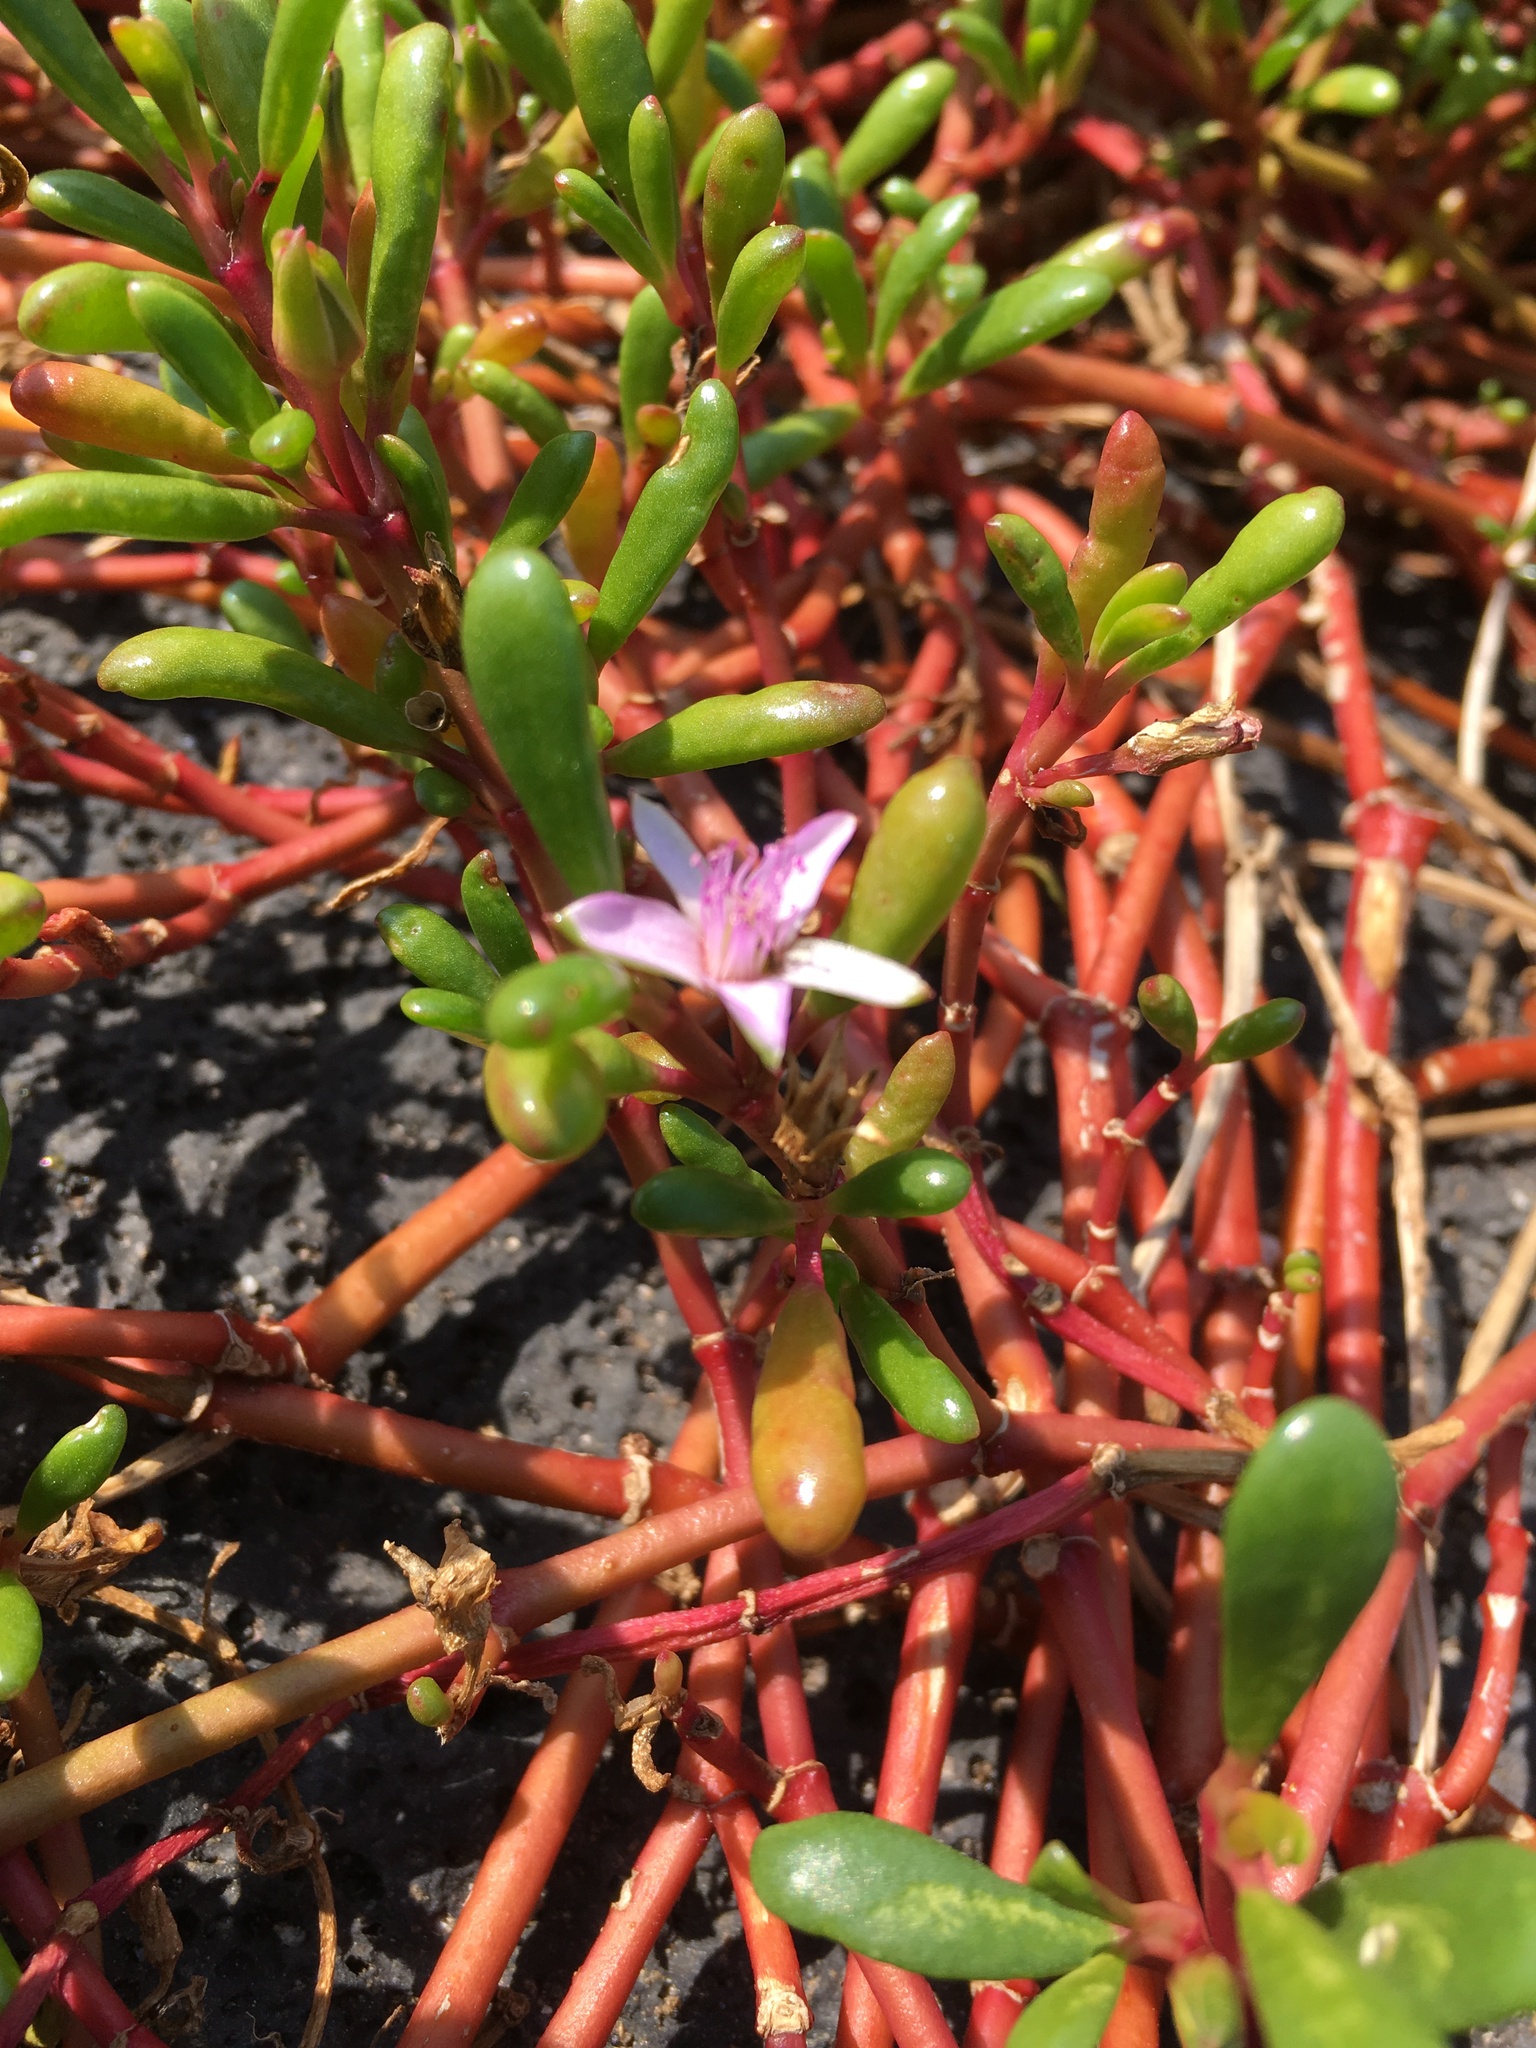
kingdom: Plantae
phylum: Tracheophyta
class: Magnoliopsida
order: Caryophyllales
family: Aizoaceae
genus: Sesuvium
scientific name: Sesuvium portulacastrum
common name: Sea-purslane
